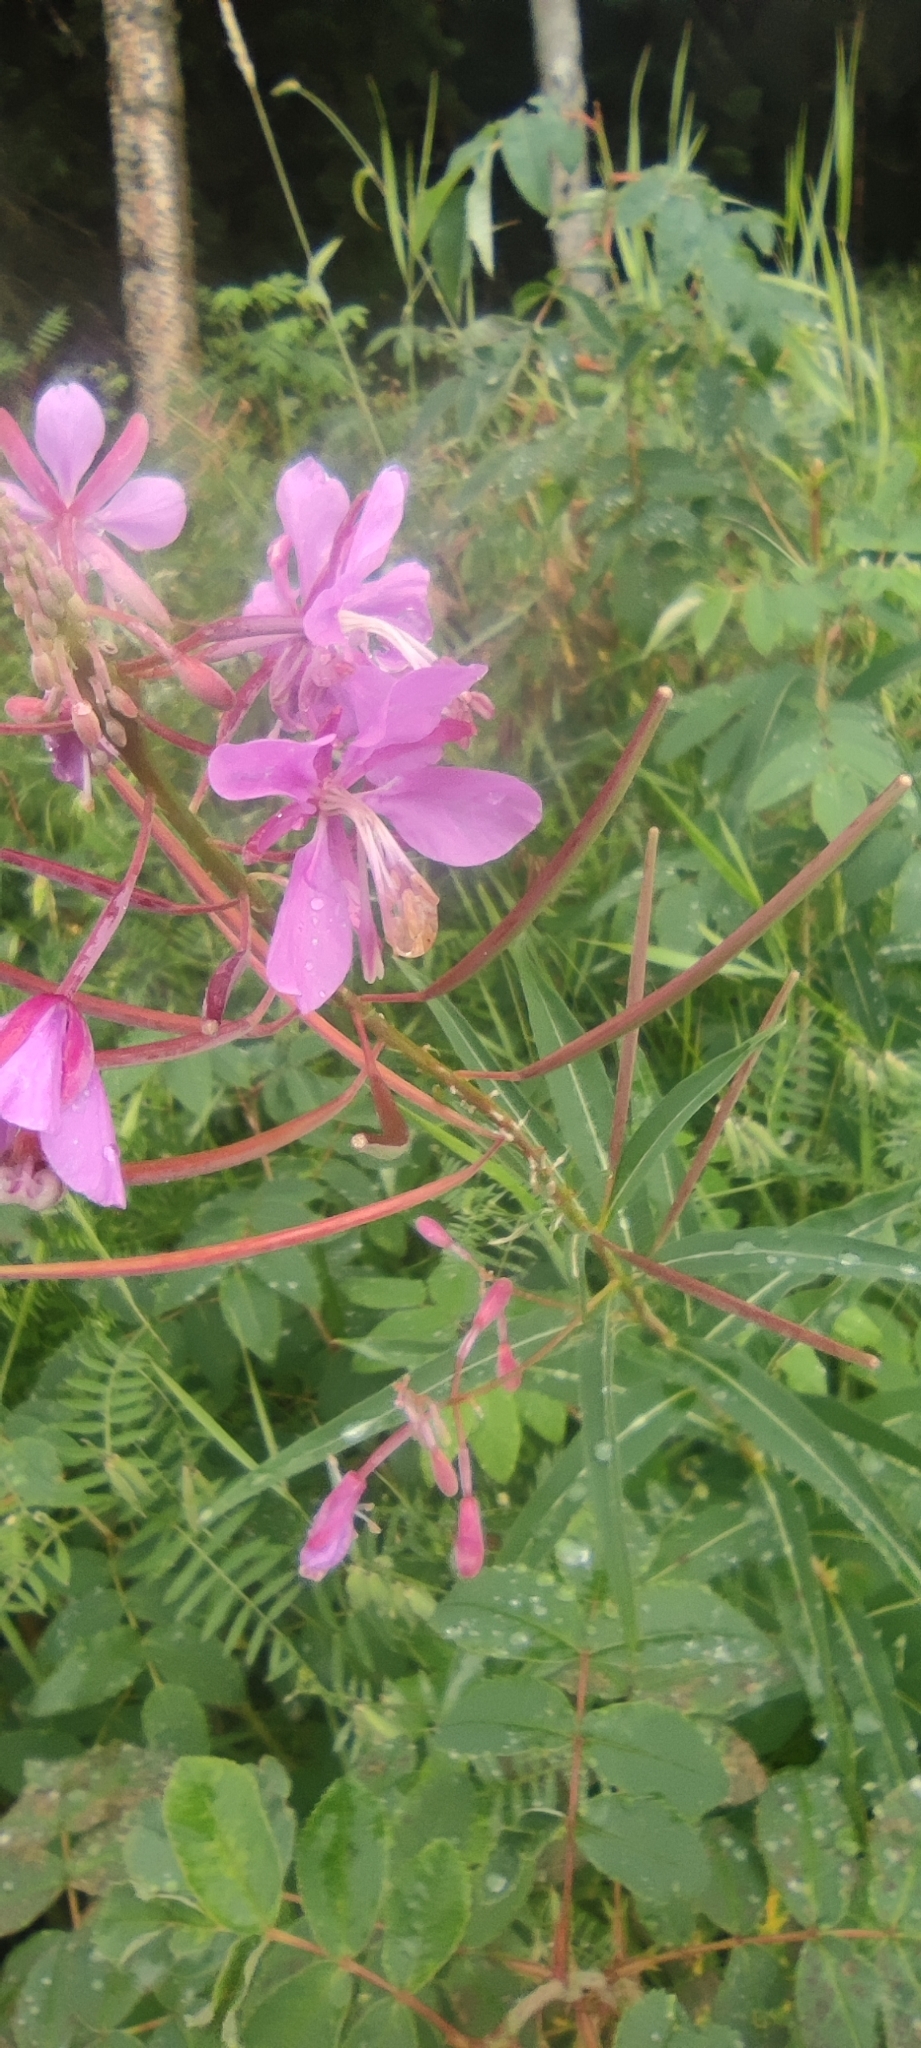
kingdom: Plantae
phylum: Tracheophyta
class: Magnoliopsida
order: Myrtales
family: Onagraceae
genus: Chamaenerion
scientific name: Chamaenerion angustifolium
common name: Fireweed
